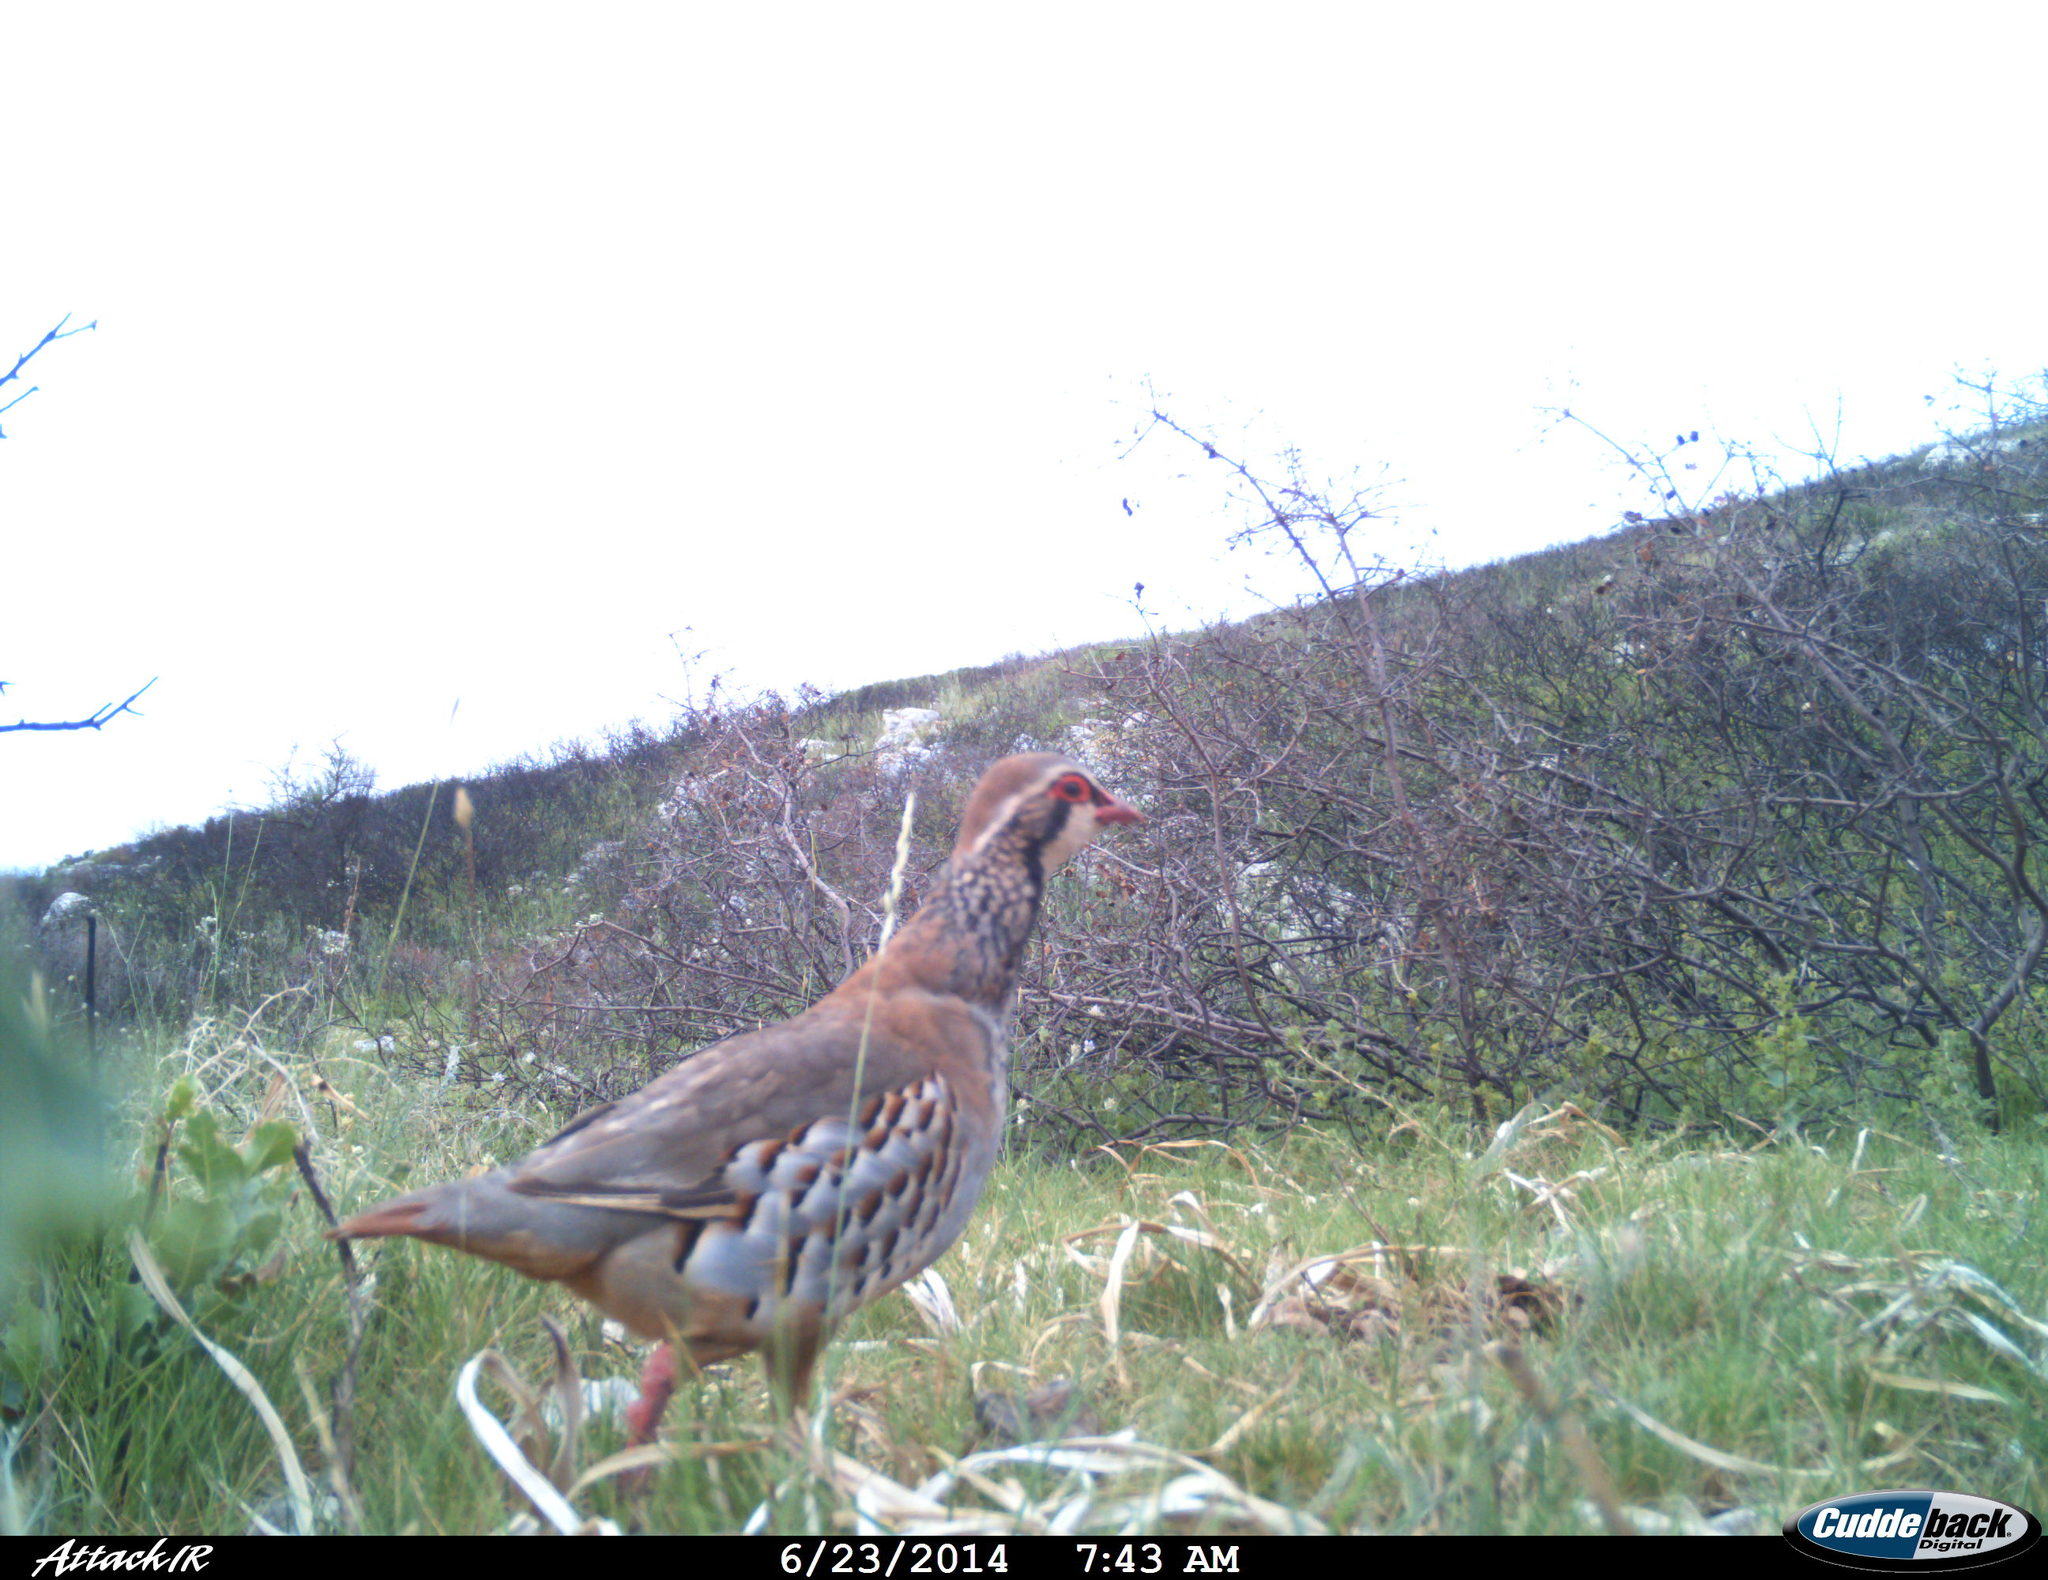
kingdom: Animalia
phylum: Chordata
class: Aves
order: Galliformes
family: Phasianidae
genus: Alectoris
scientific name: Alectoris rufa
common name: Red-legged partridge
